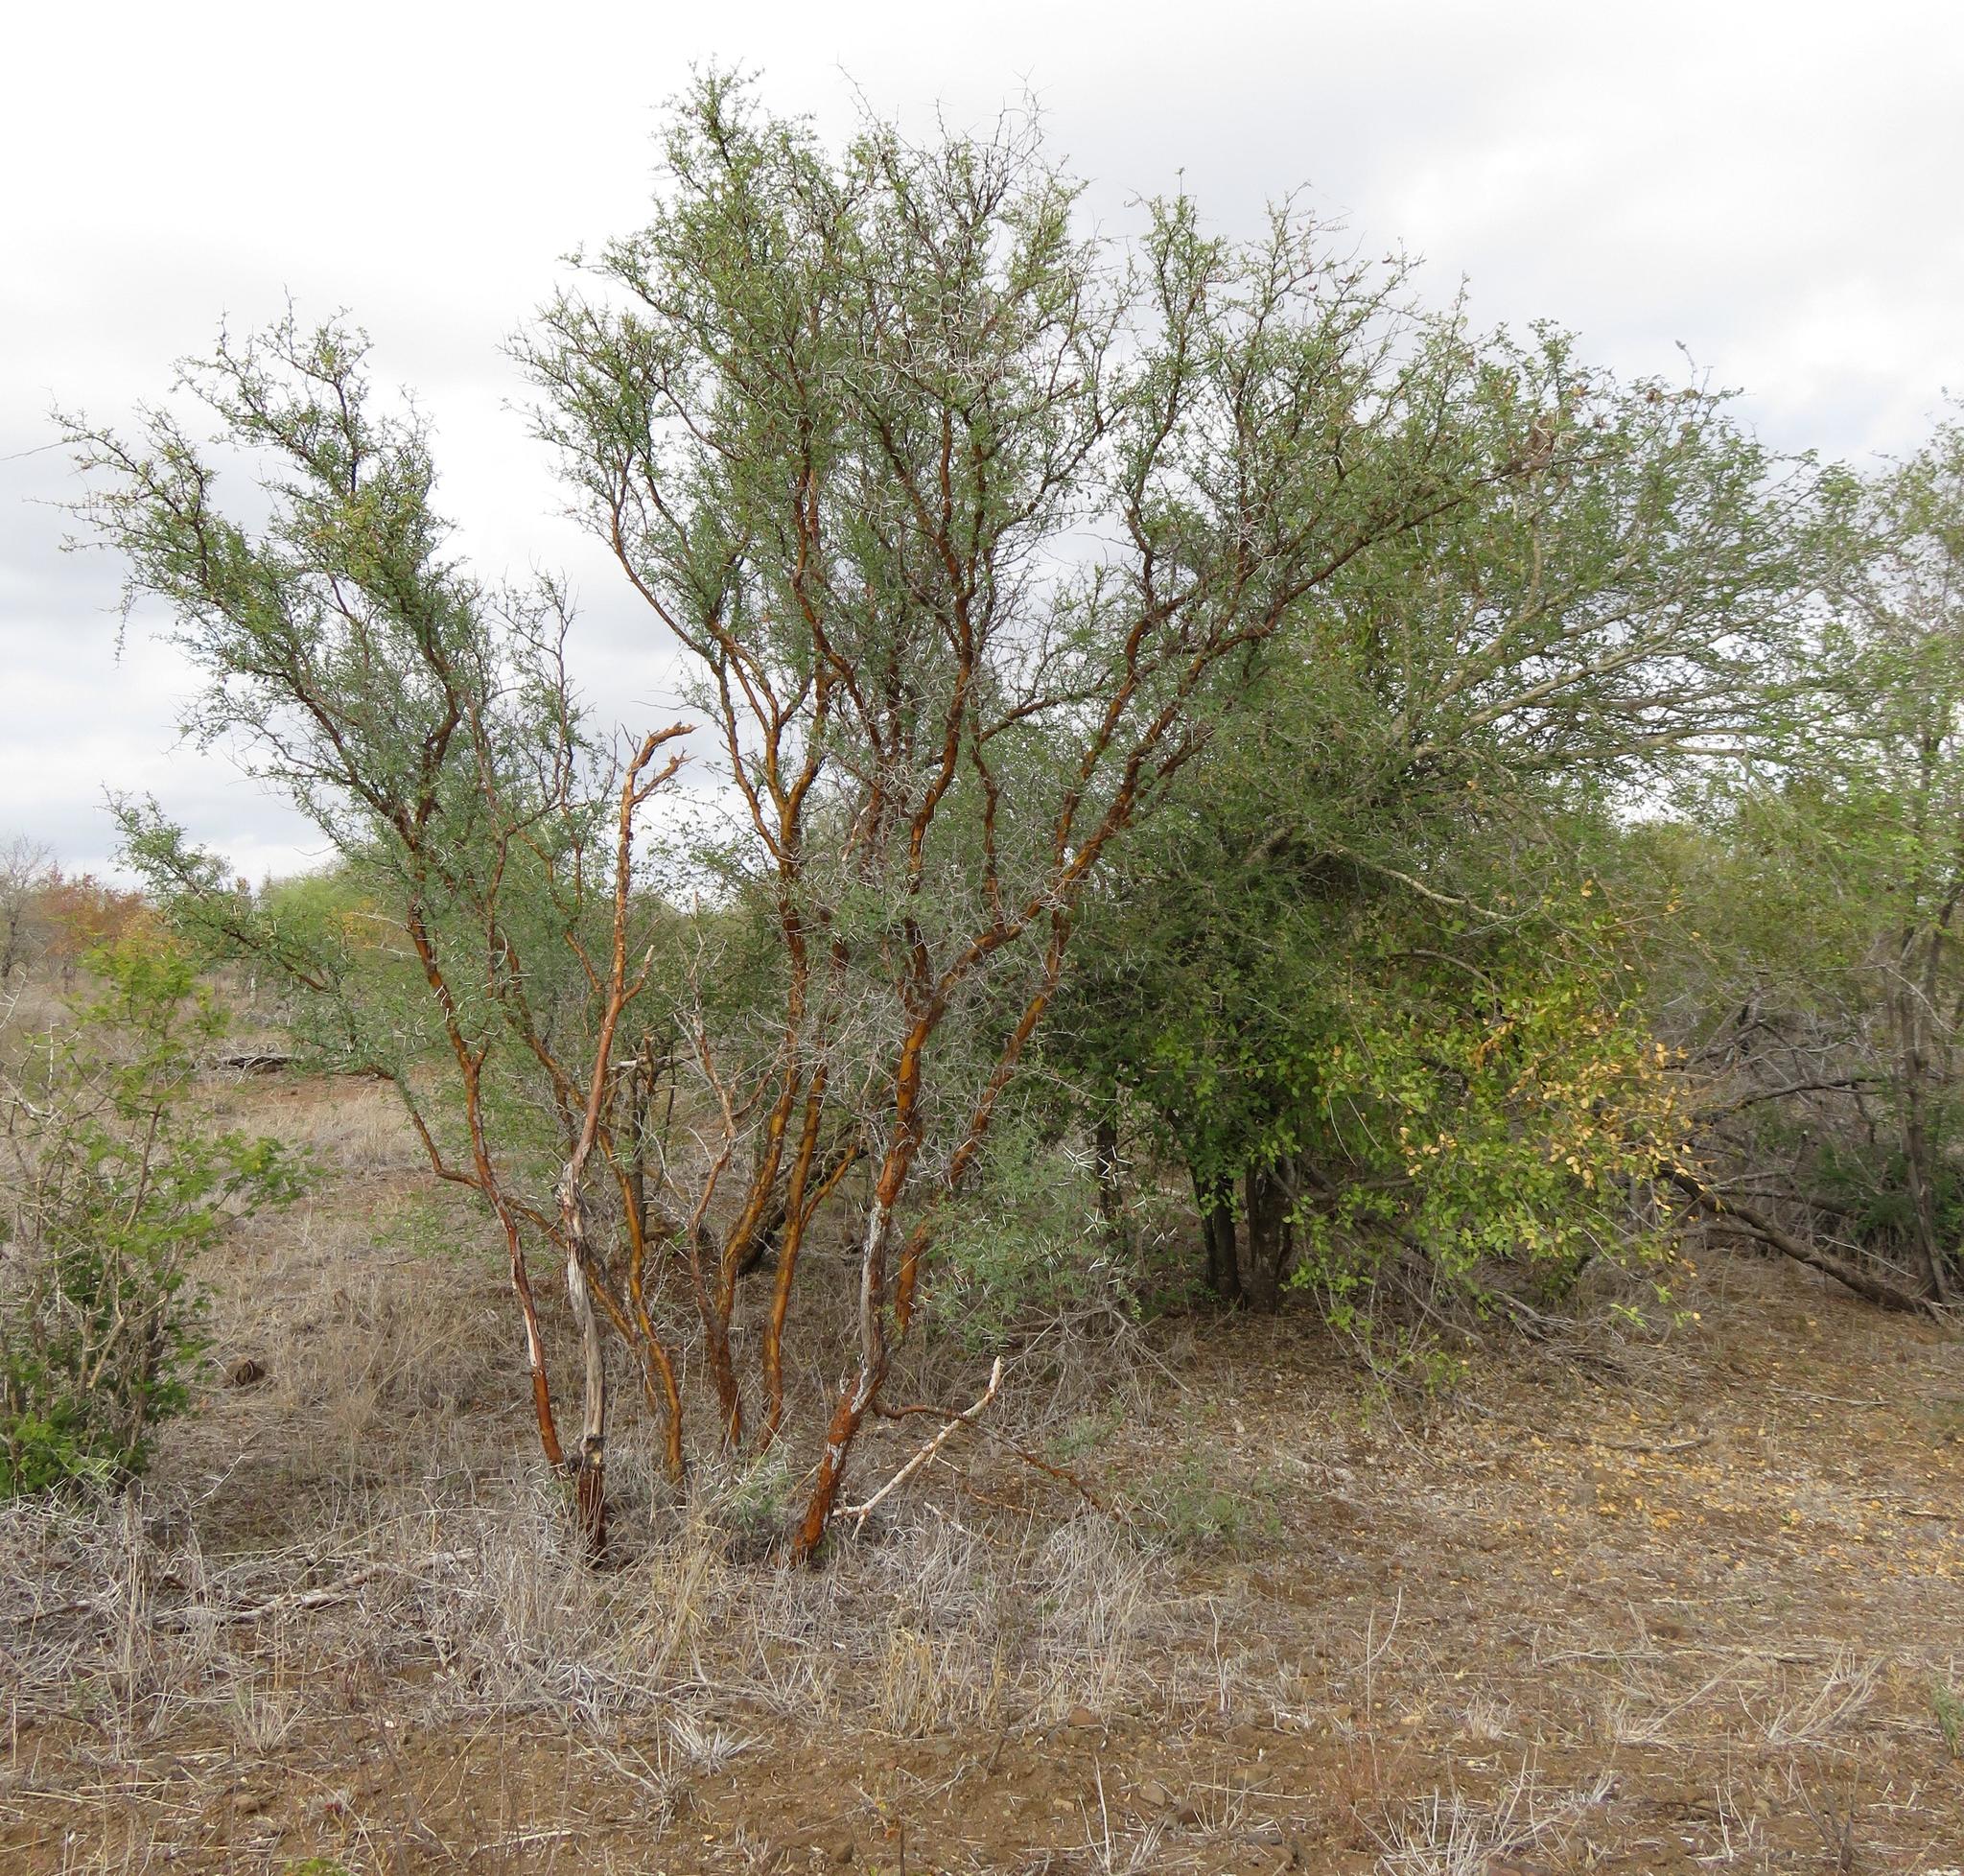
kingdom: Plantae
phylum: Tracheophyta
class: Magnoliopsida
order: Fabales
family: Fabaceae
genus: Vachellia
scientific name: Vachellia exuvialis
